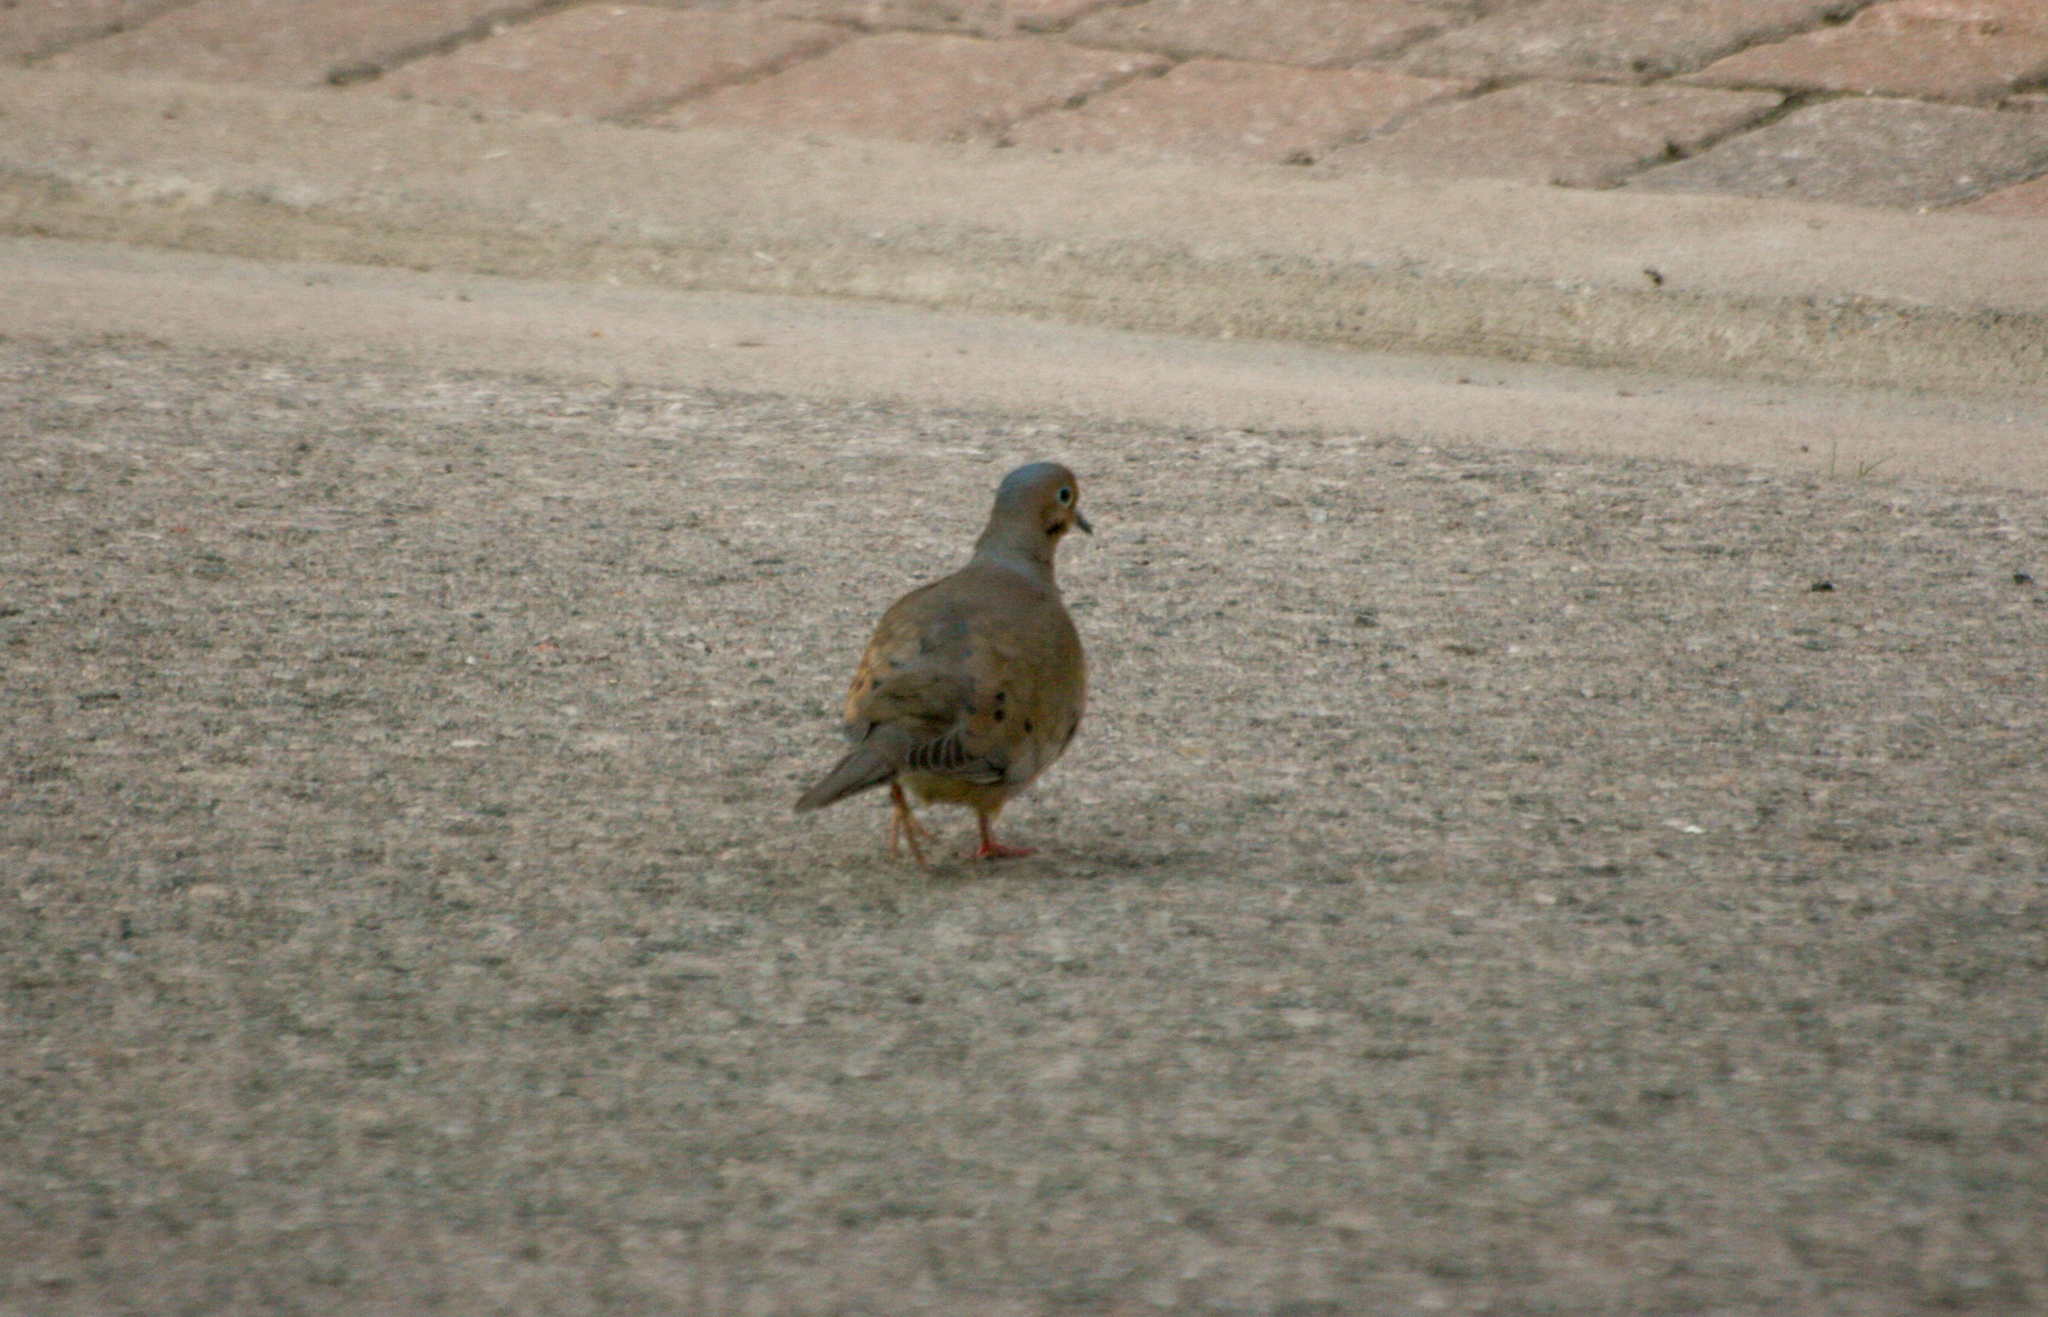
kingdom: Animalia
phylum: Chordata
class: Aves
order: Columbiformes
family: Columbidae
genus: Zenaida
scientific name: Zenaida macroura
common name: Mourning dove
